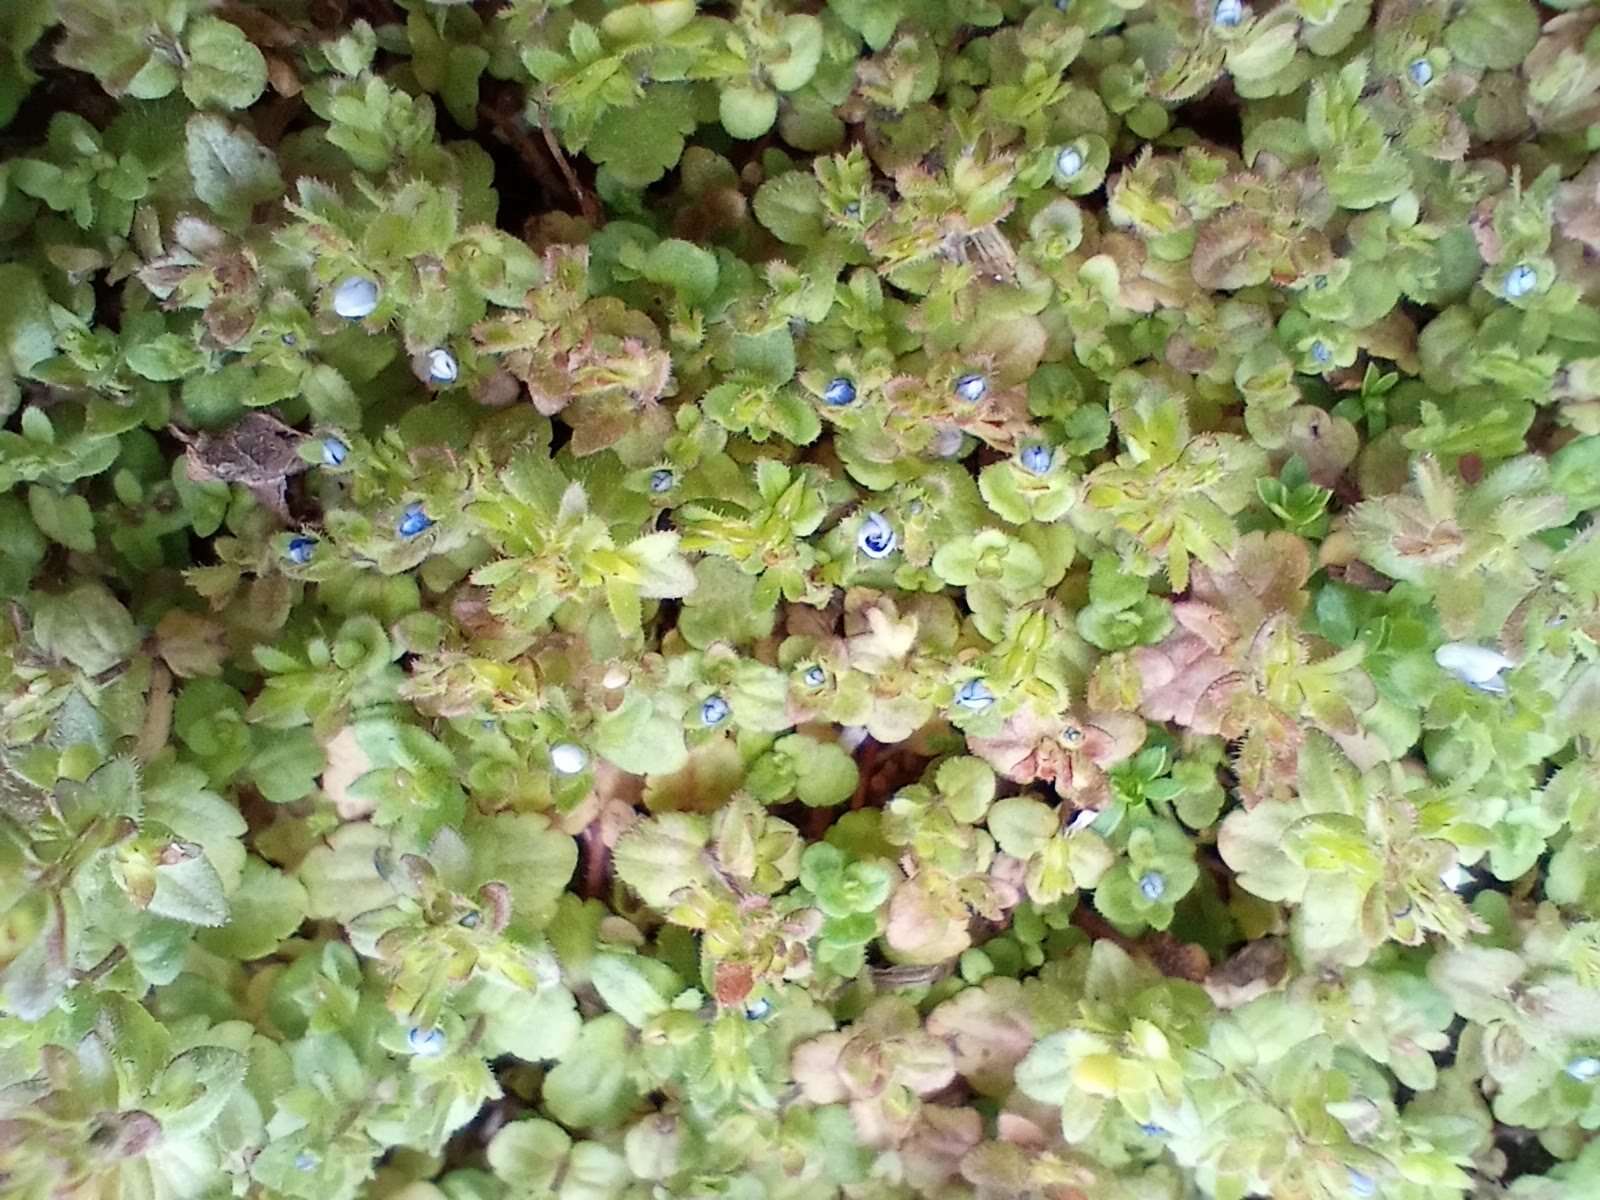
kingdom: Plantae
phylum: Tracheophyta
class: Magnoliopsida
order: Lamiales
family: Plantaginaceae
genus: Veronica
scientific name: Veronica arvensis
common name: Corn speedwell
